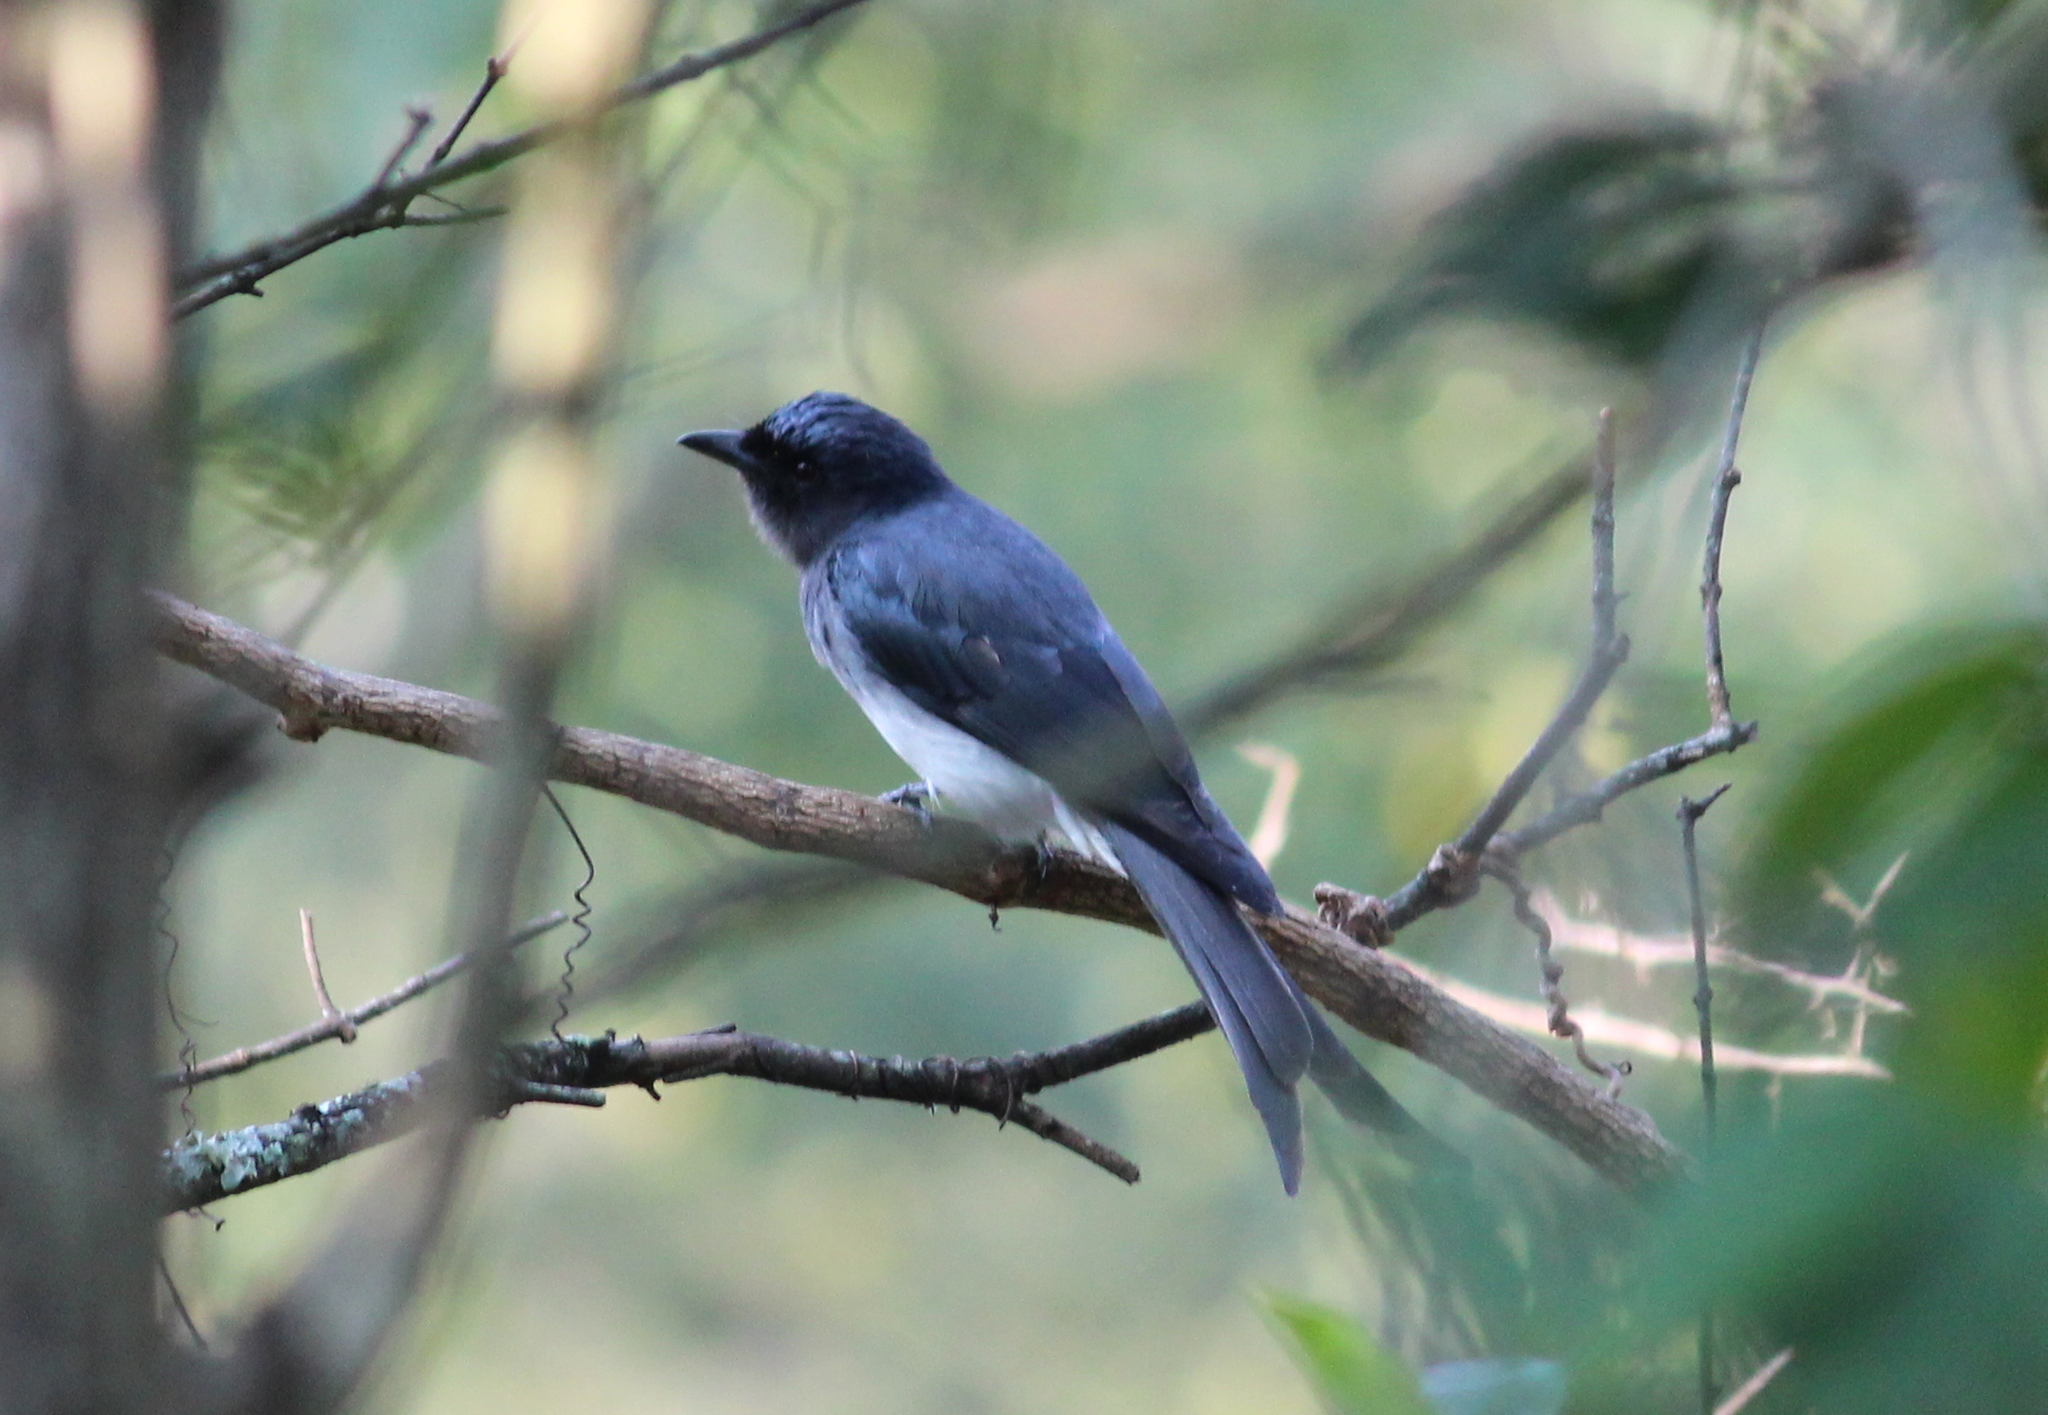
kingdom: Animalia
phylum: Chordata
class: Aves
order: Passeriformes
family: Dicruridae
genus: Dicrurus
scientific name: Dicrurus caerulescens
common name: White-bellied drongo
